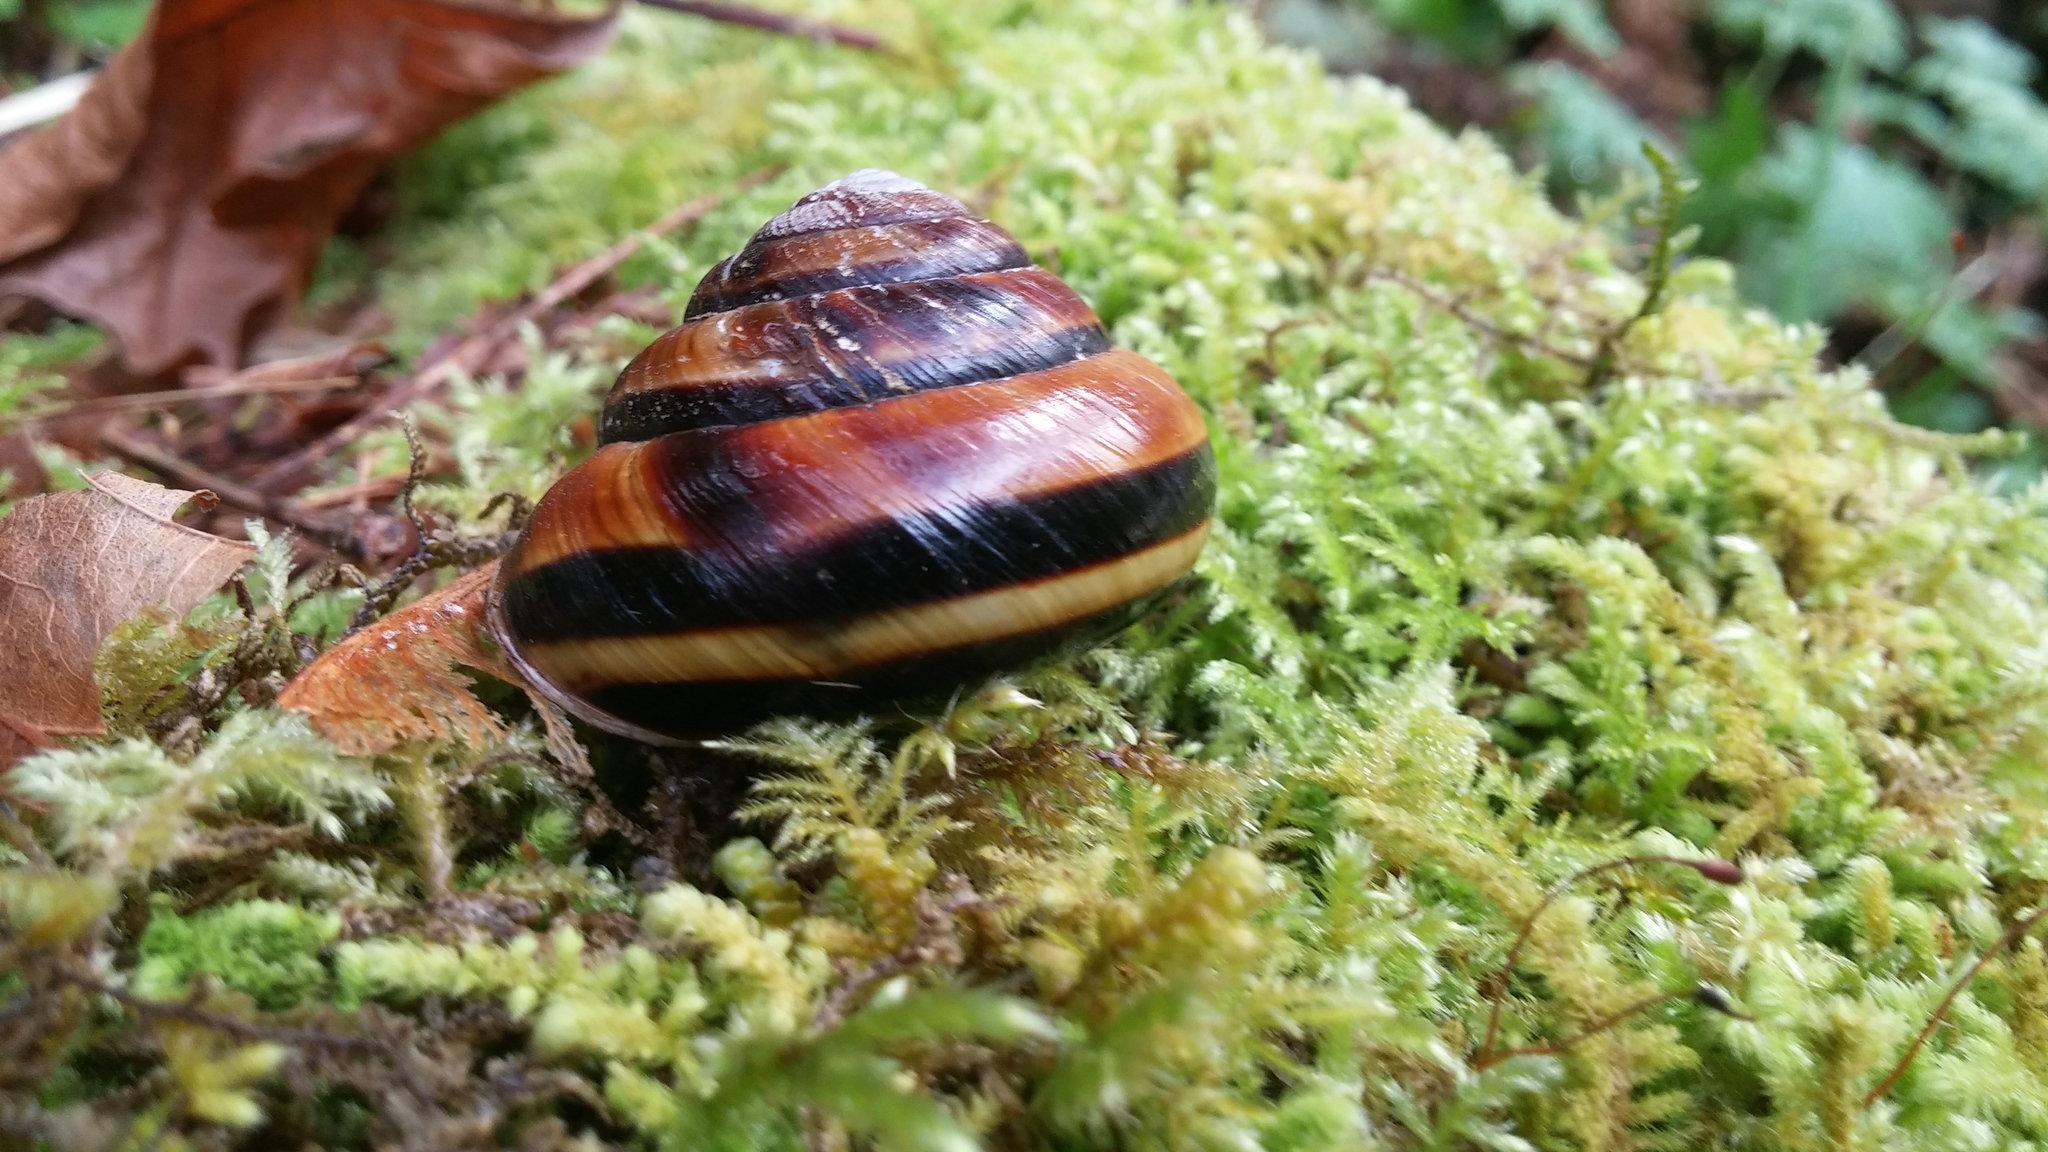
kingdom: Animalia
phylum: Mollusca
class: Gastropoda
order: Stylommatophora
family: Xanthonychidae
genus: Monadenia
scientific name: Monadenia fidelis
